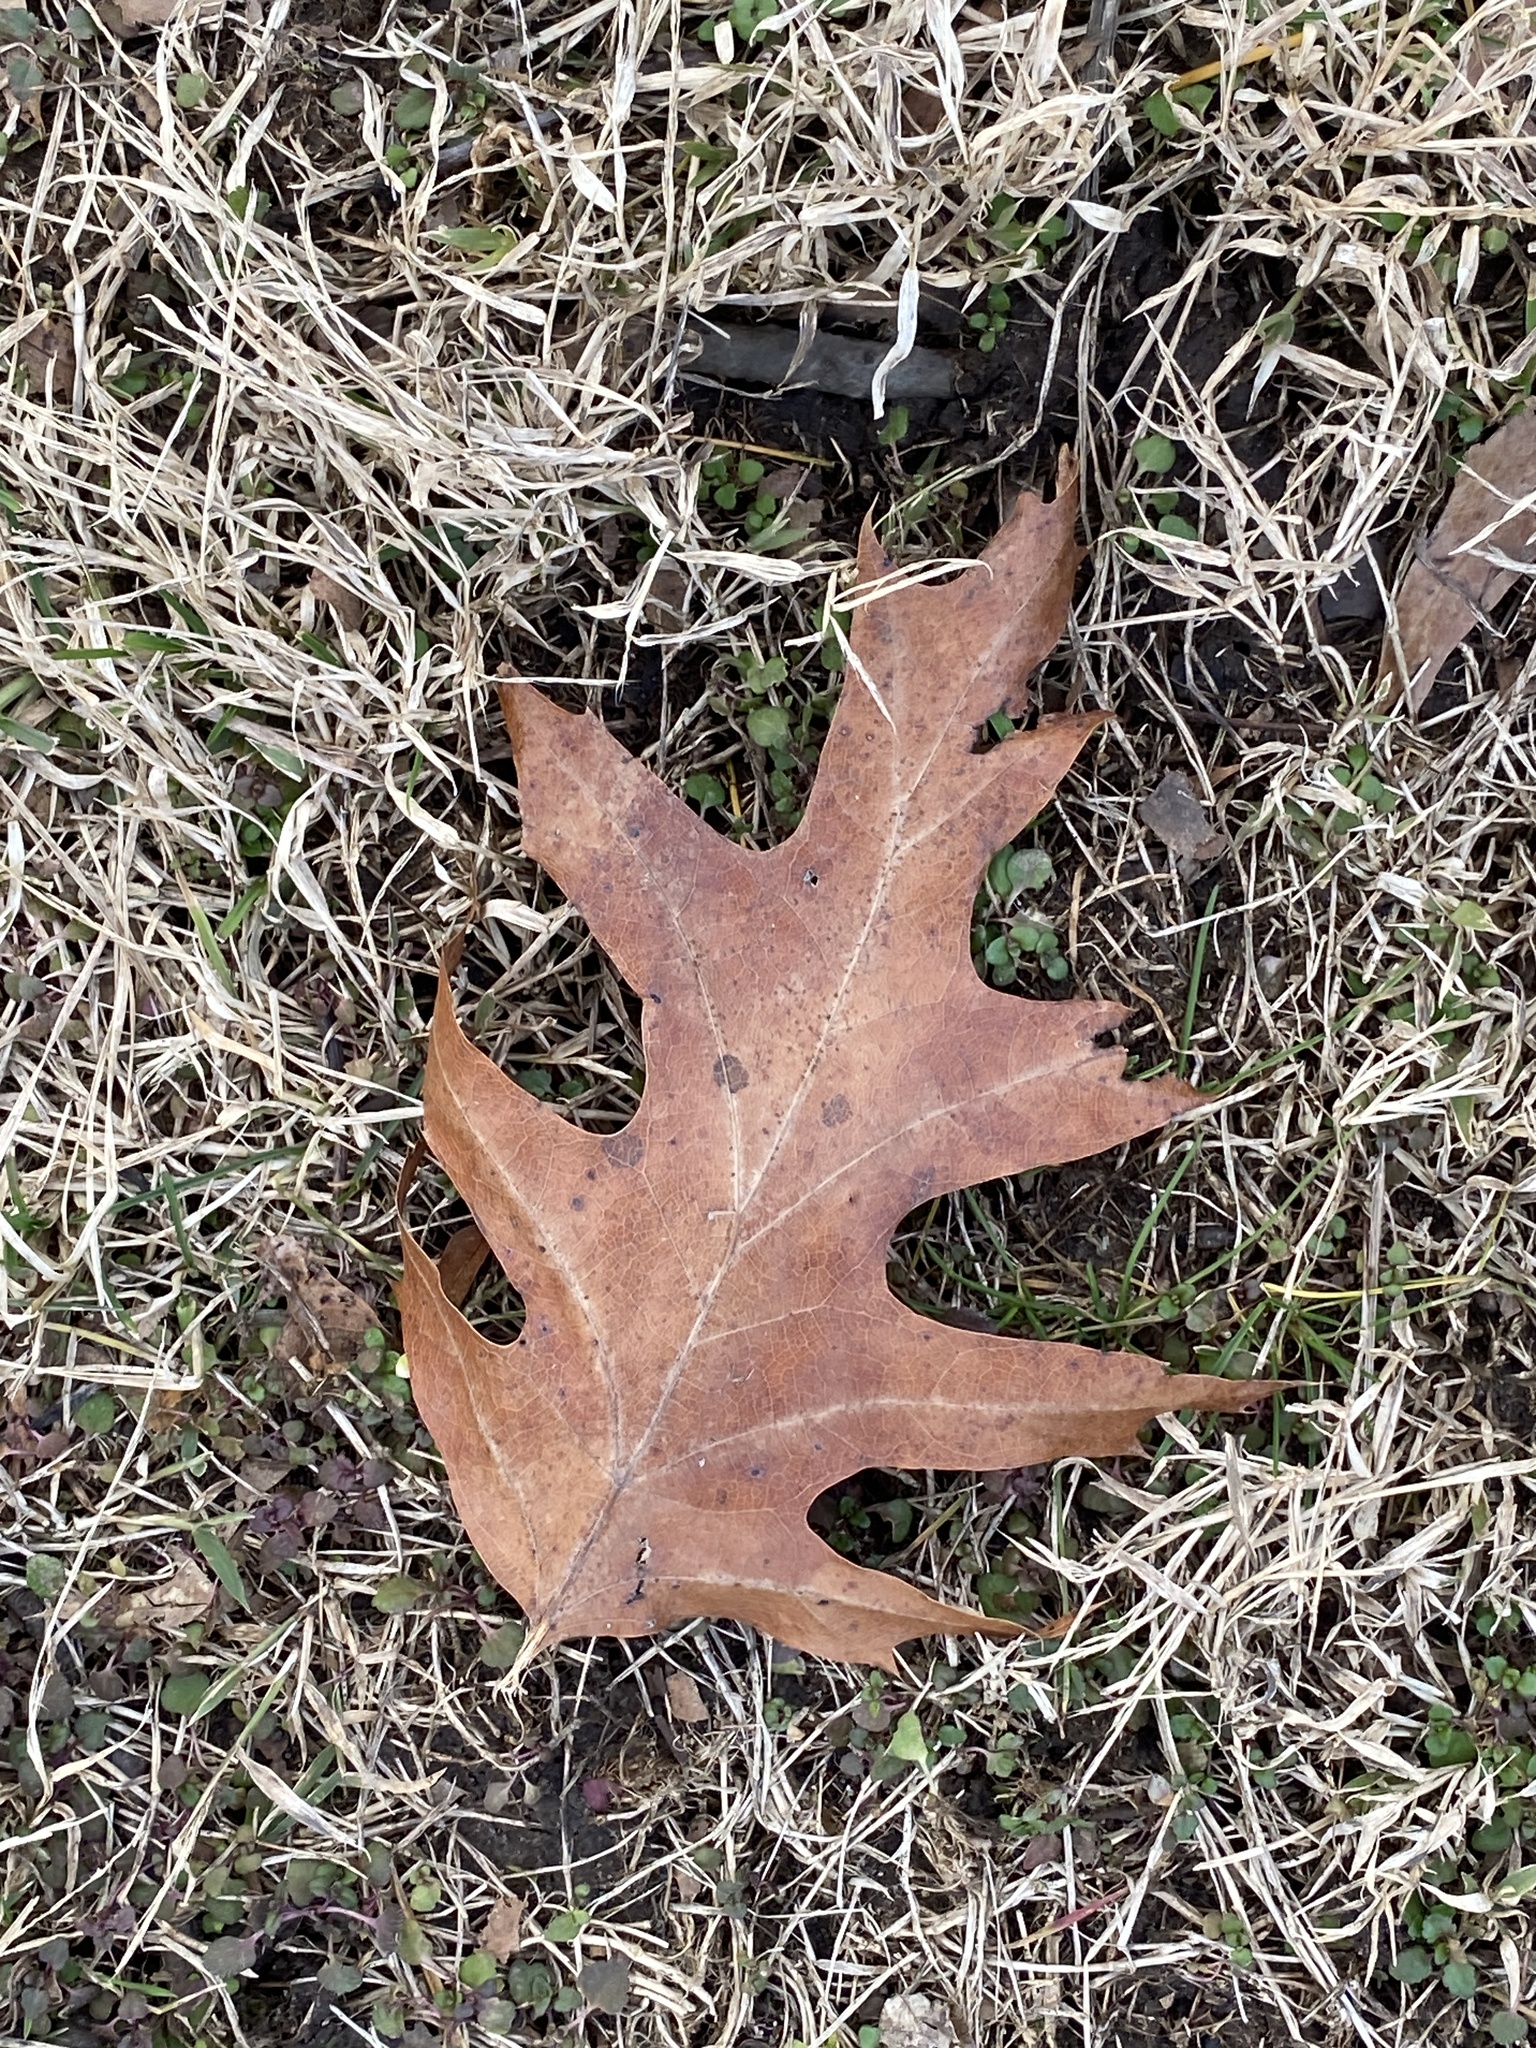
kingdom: Plantae
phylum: Tracheophyta
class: Magnoliopsida
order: Fagales
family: Fagaceae
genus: Quercus
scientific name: Quercus rubra
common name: Red oak
